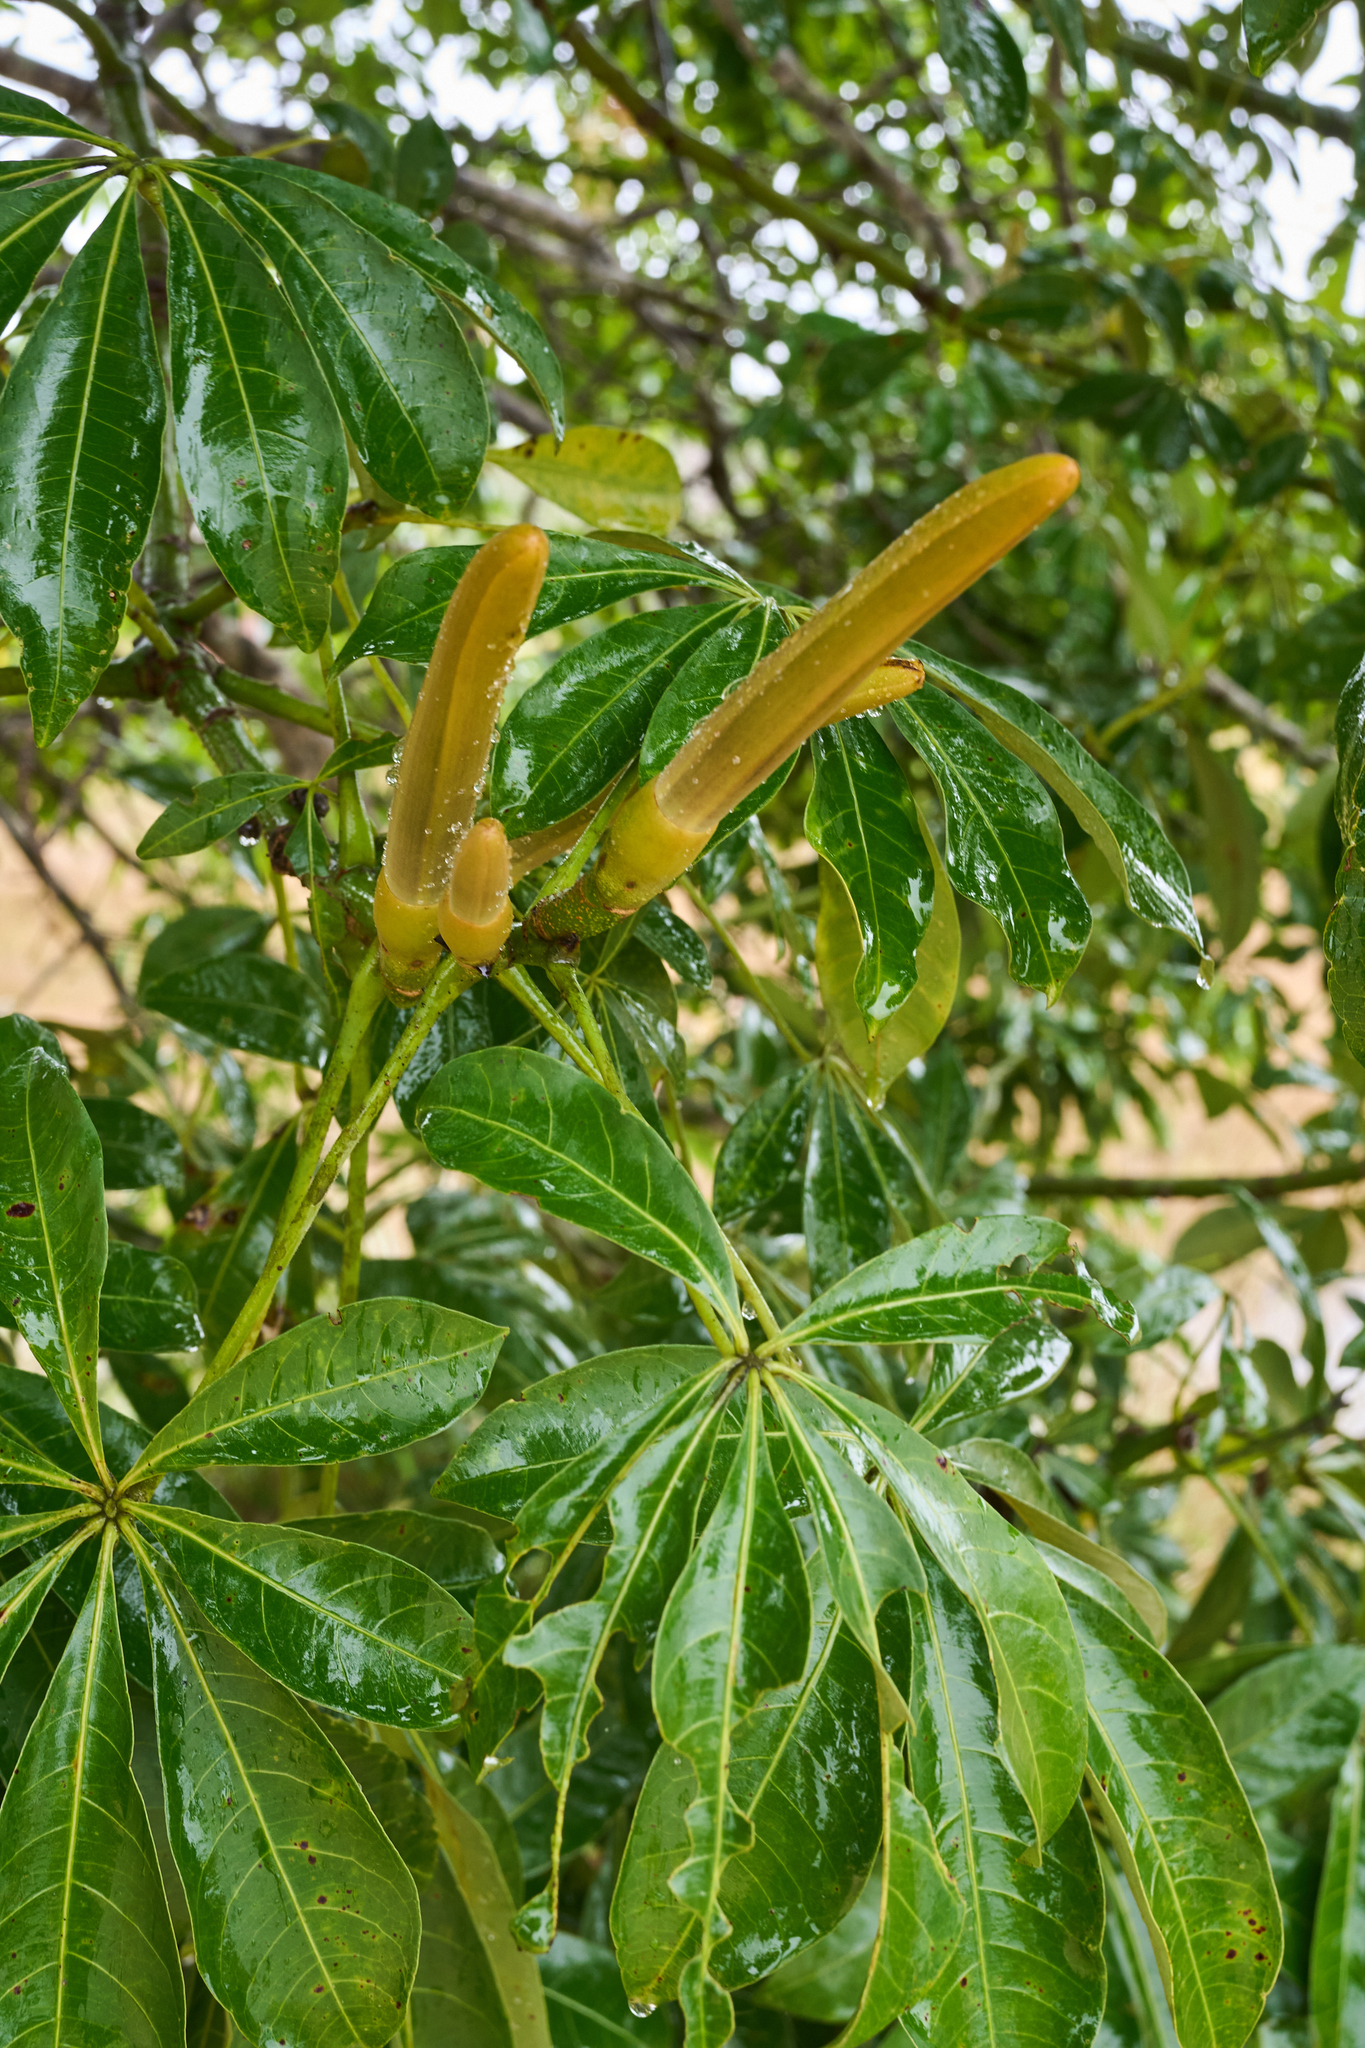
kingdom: Plantae
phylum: Tracheophyta
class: Magnoliopsida
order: Malvales
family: Malvaceae
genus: Pachira
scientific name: Pachira aquatica
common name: Provision-tree
